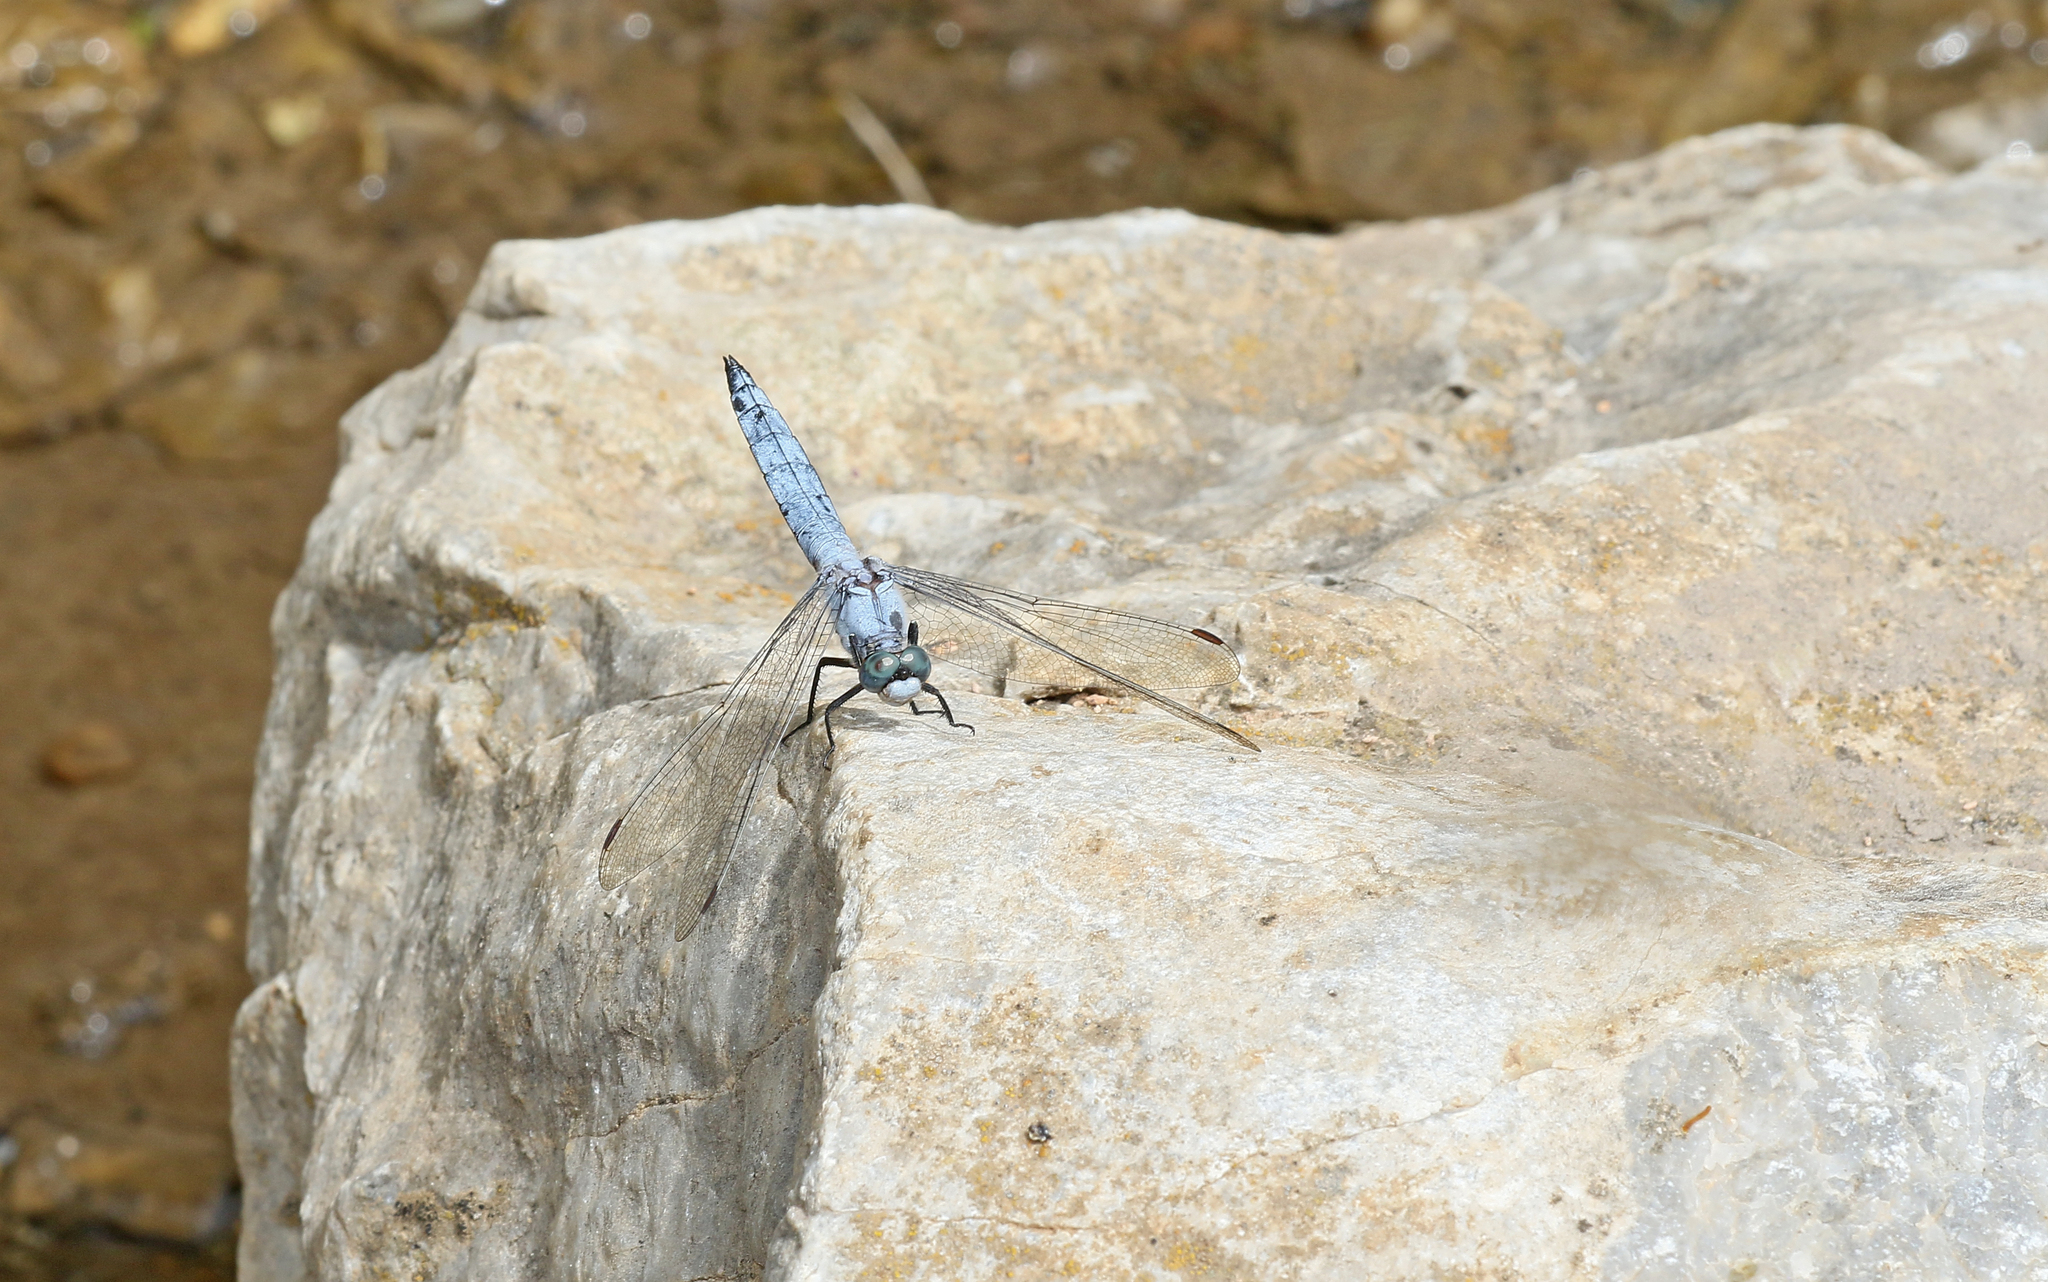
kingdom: Animalia
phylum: Arthropoda
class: Insecta
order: Odonata
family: Libellulidae
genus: Orthetrum
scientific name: Orthetrum brunneum
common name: Southern skimmer
